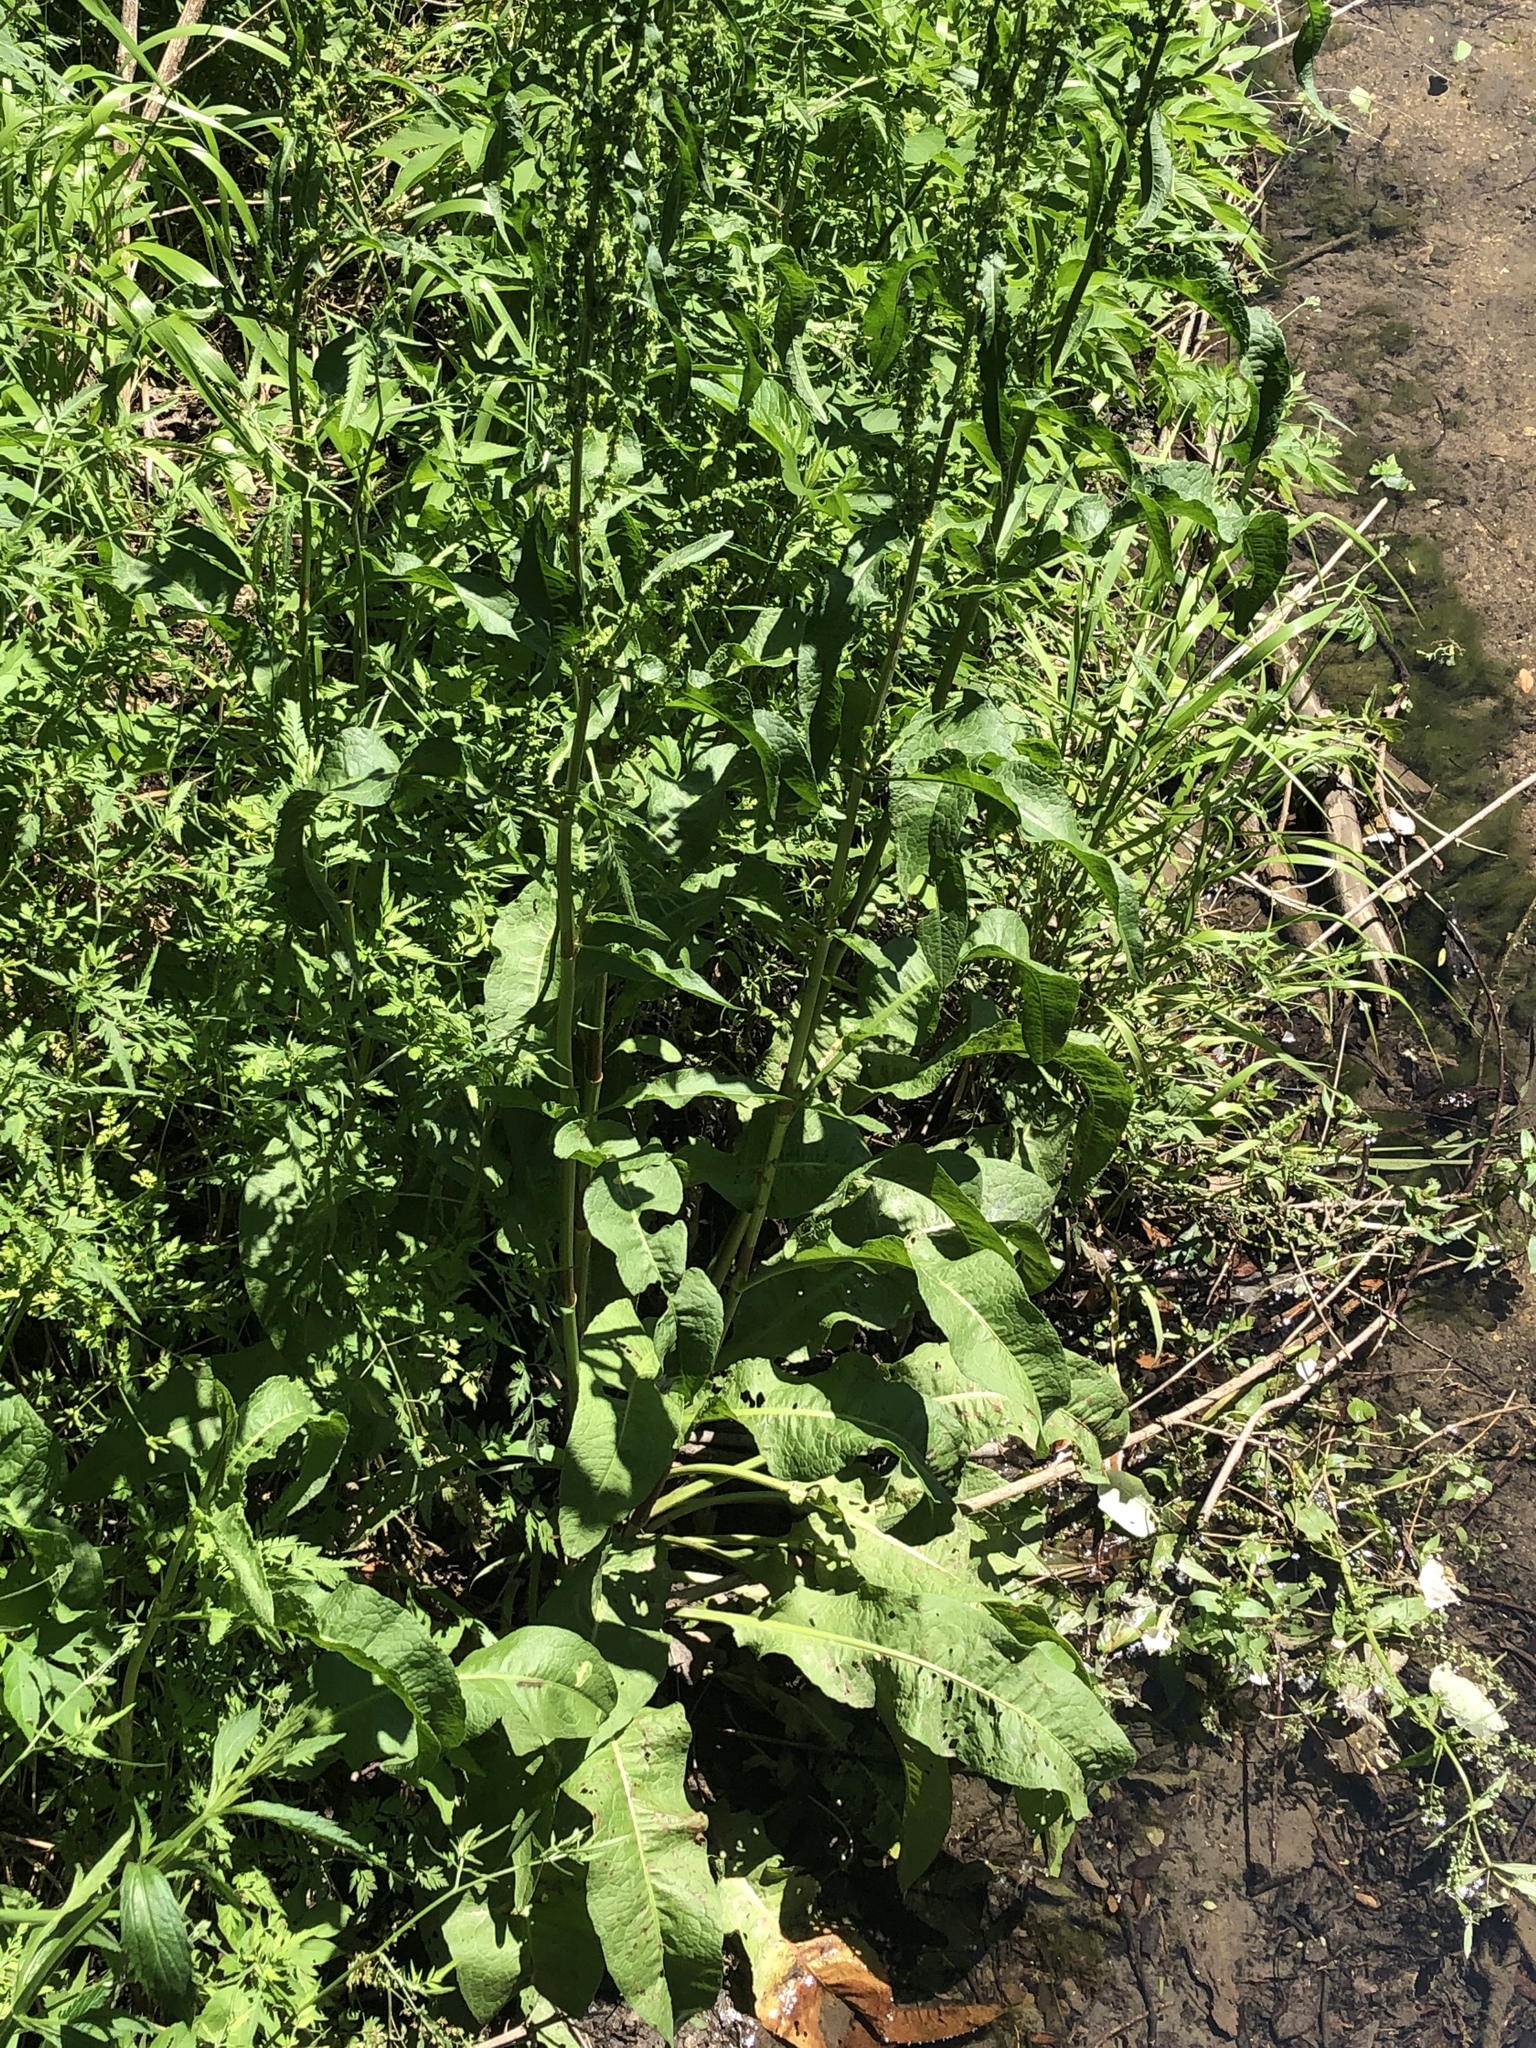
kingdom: Plantae
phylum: Tracheophyta
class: Magnoliopsida
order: Caryophyllales
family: Polygonaceae
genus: Rumex
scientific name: Rumex crispus
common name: Curled dock
